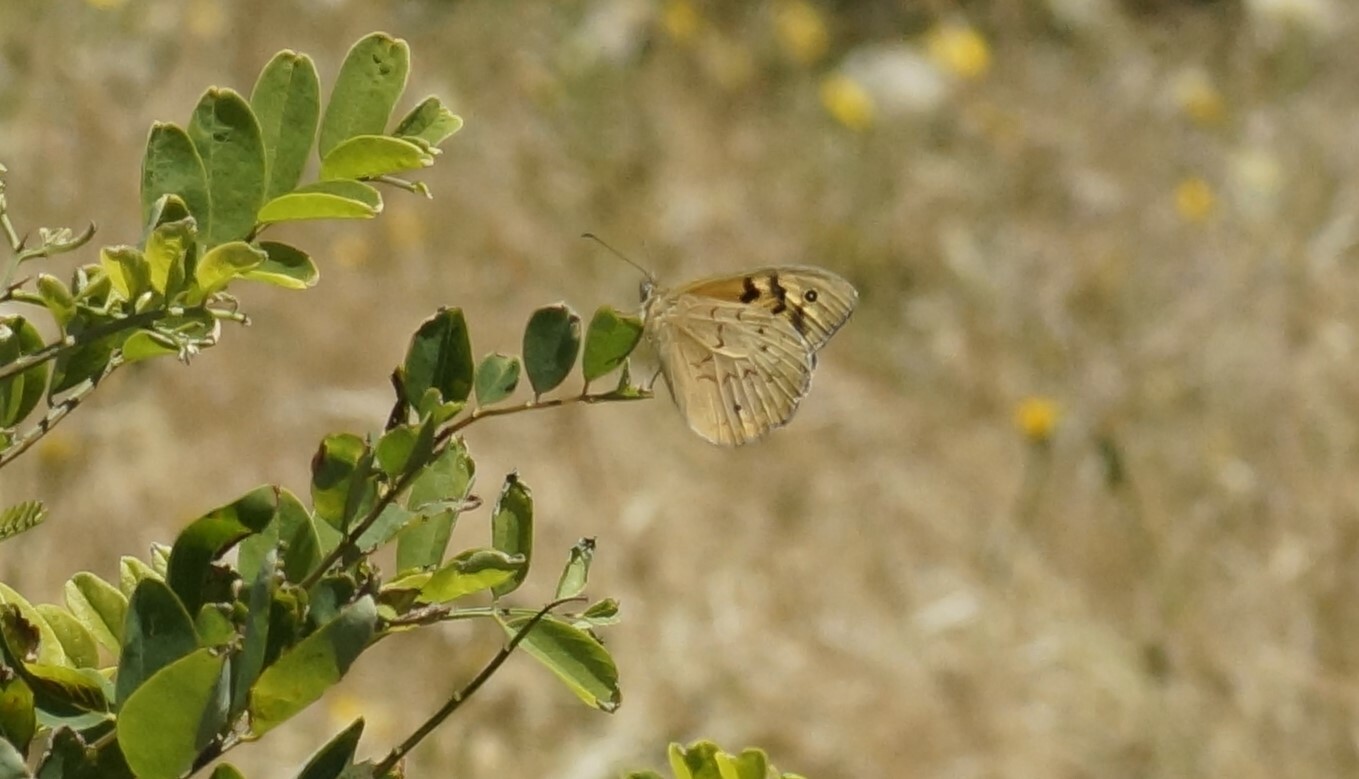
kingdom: Animalia
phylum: Arthropoda
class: Insecta
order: Lepidoptera
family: Nymphalidae
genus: Heteronympha
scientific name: Heteronympha merope
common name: Common brown
